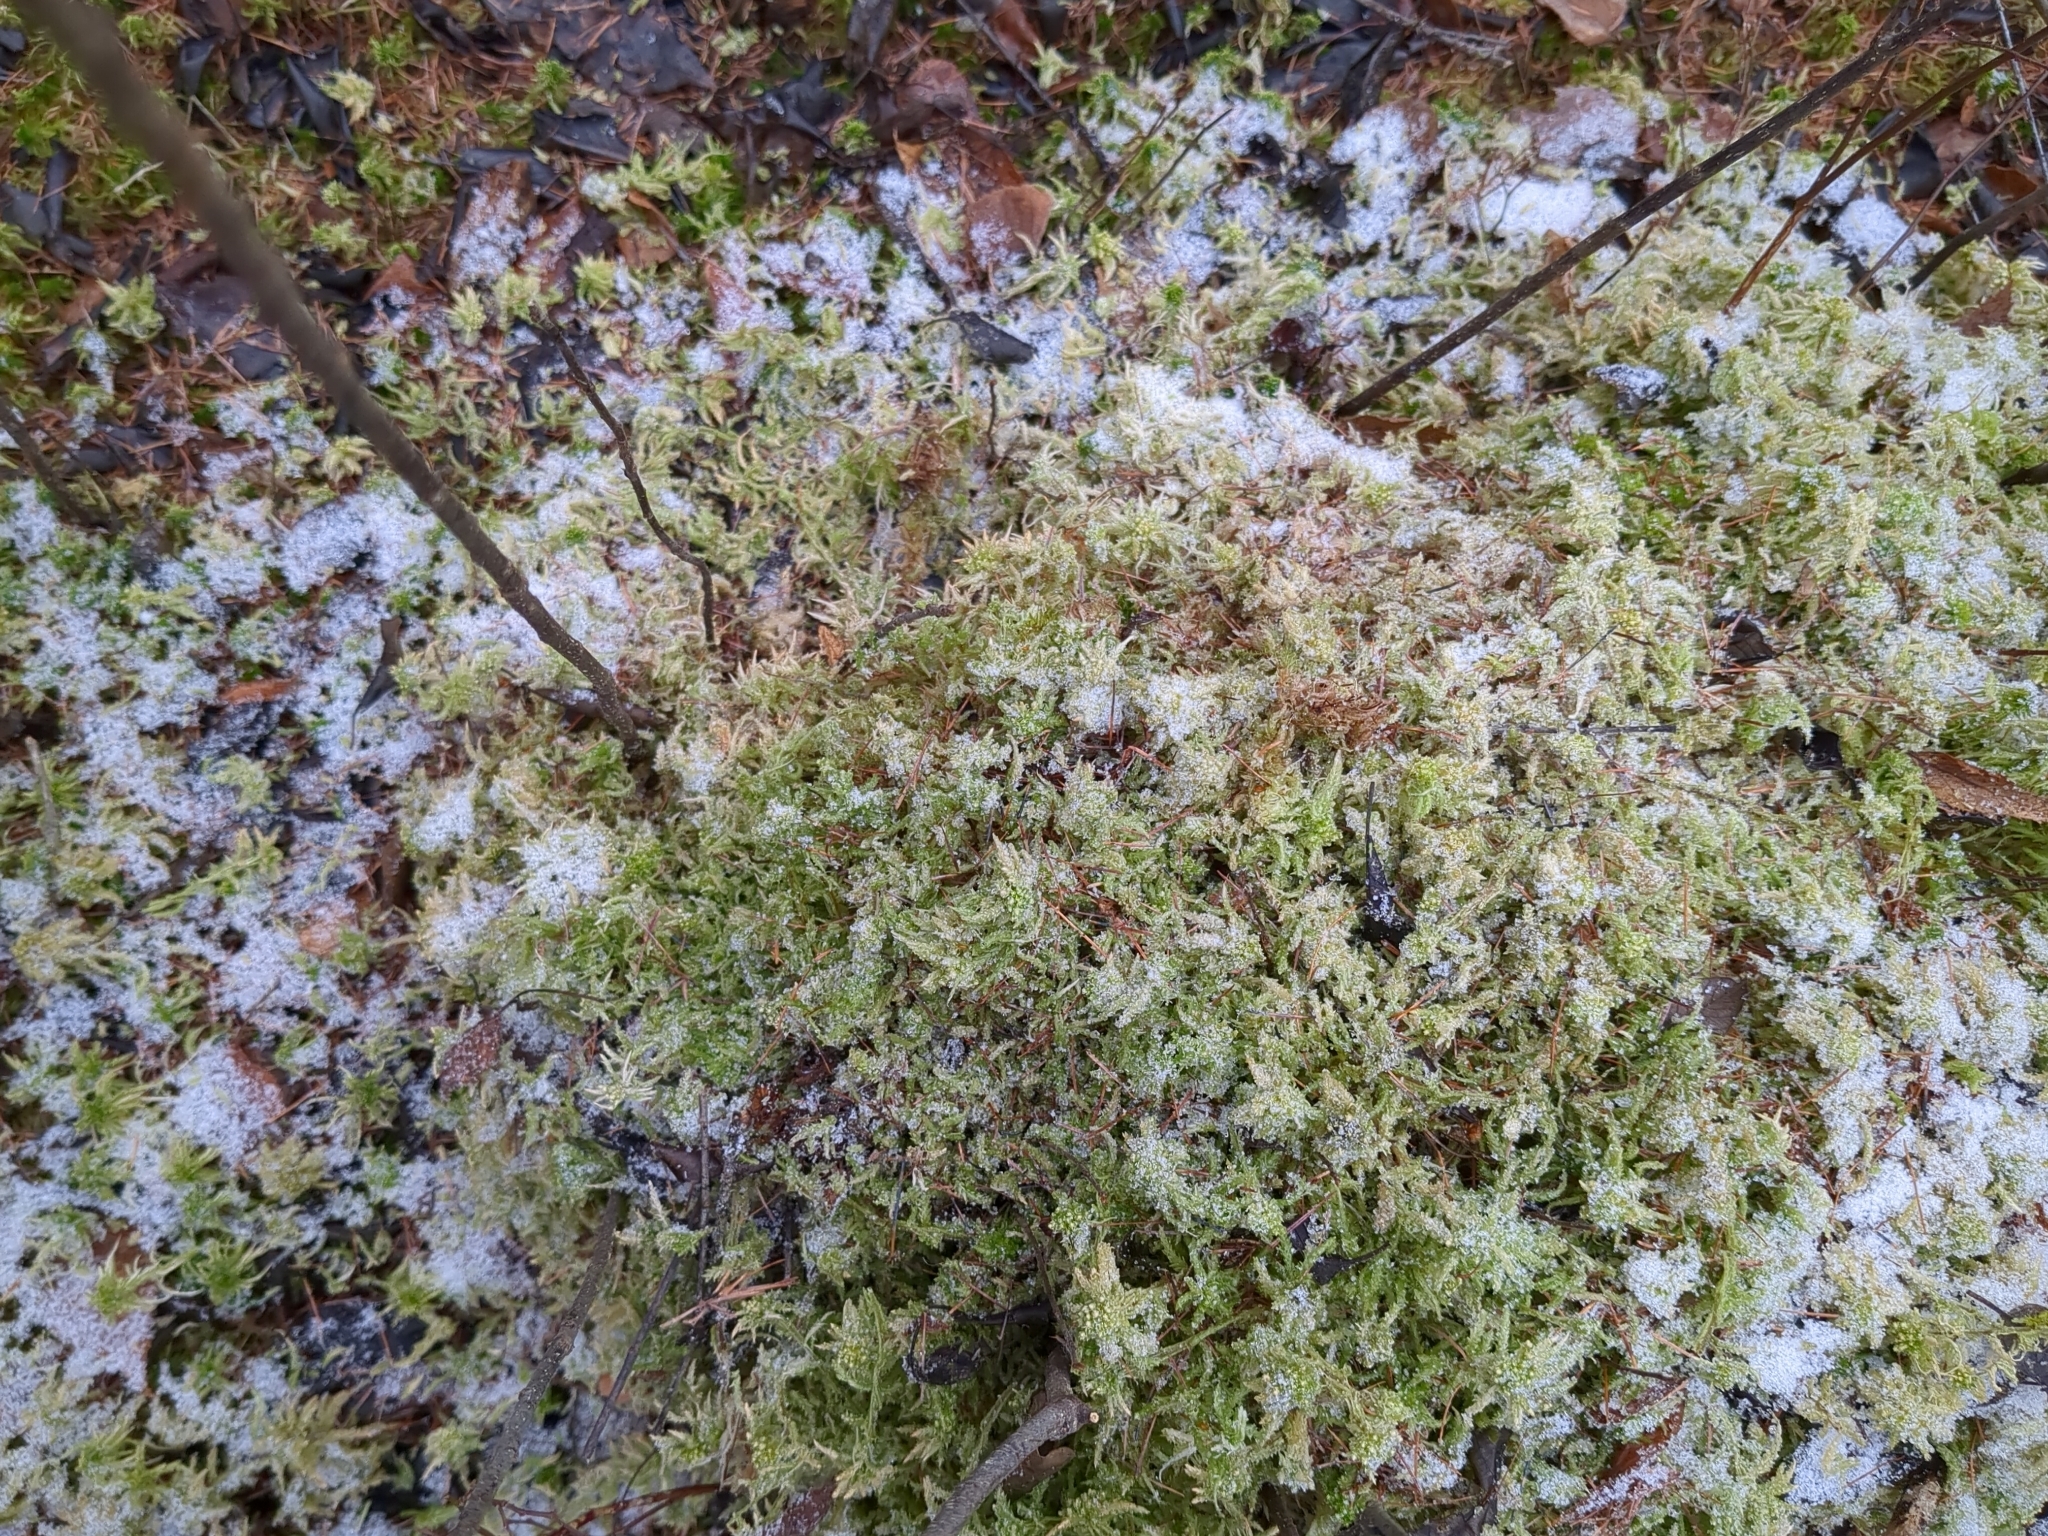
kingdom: Plantae
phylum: Bryophyta
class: Bryopsida
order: Hypnales
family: Hylocomiaceae
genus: Hylocomium
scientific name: Hylocomium splendens
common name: Stairstep moss
